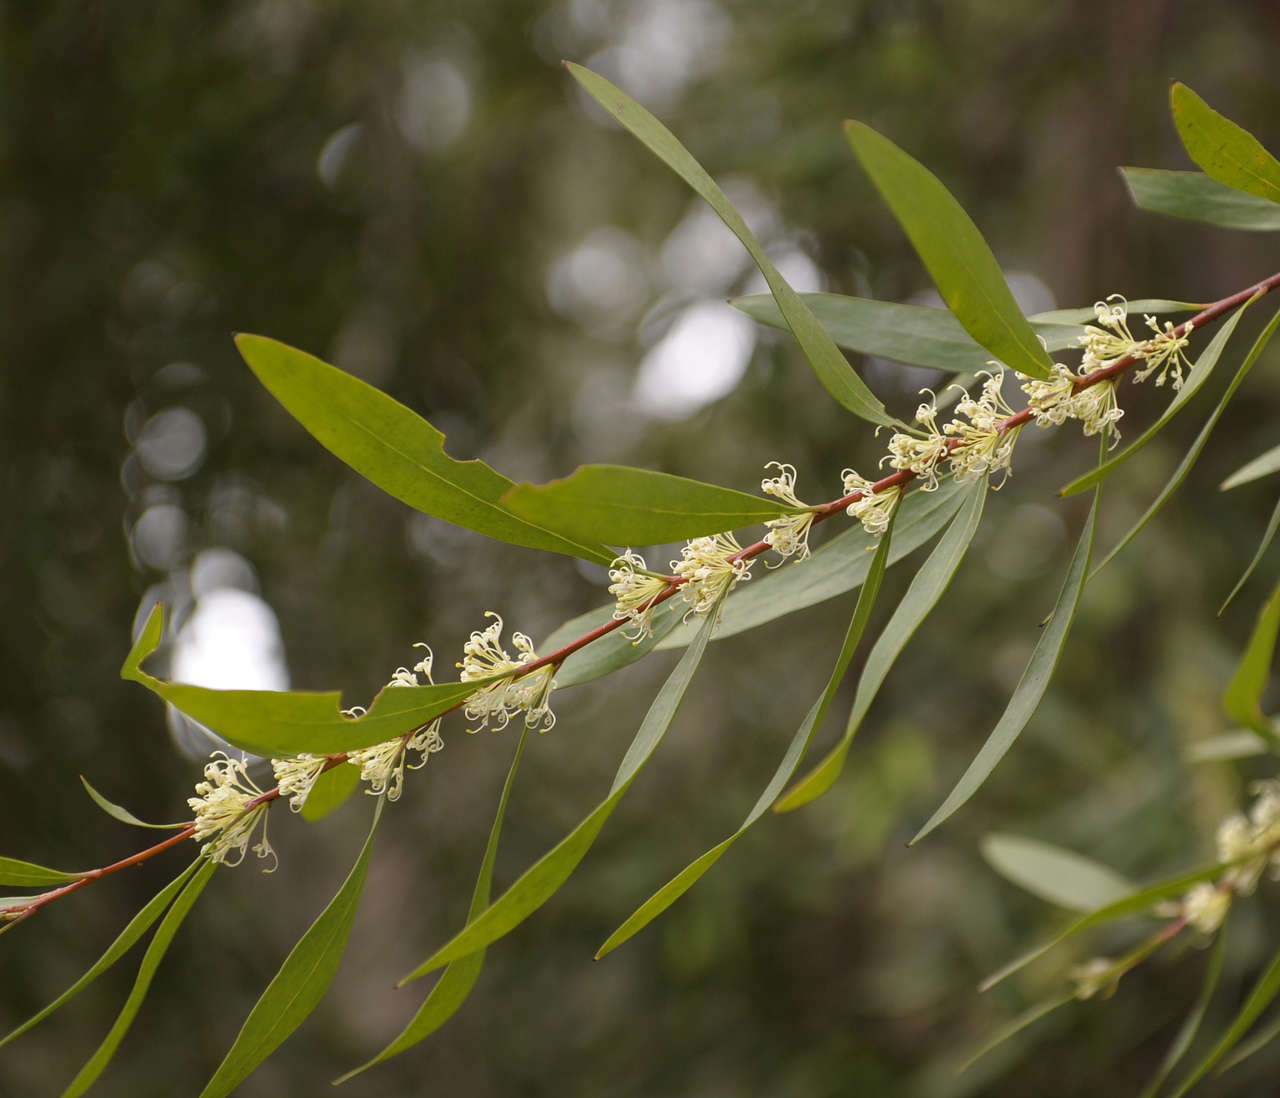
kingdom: Plantae
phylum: Tracheophyta
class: Magnoliopsida
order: Proteales
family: Proteaceae
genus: Hakea
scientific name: Hakea eriantha
